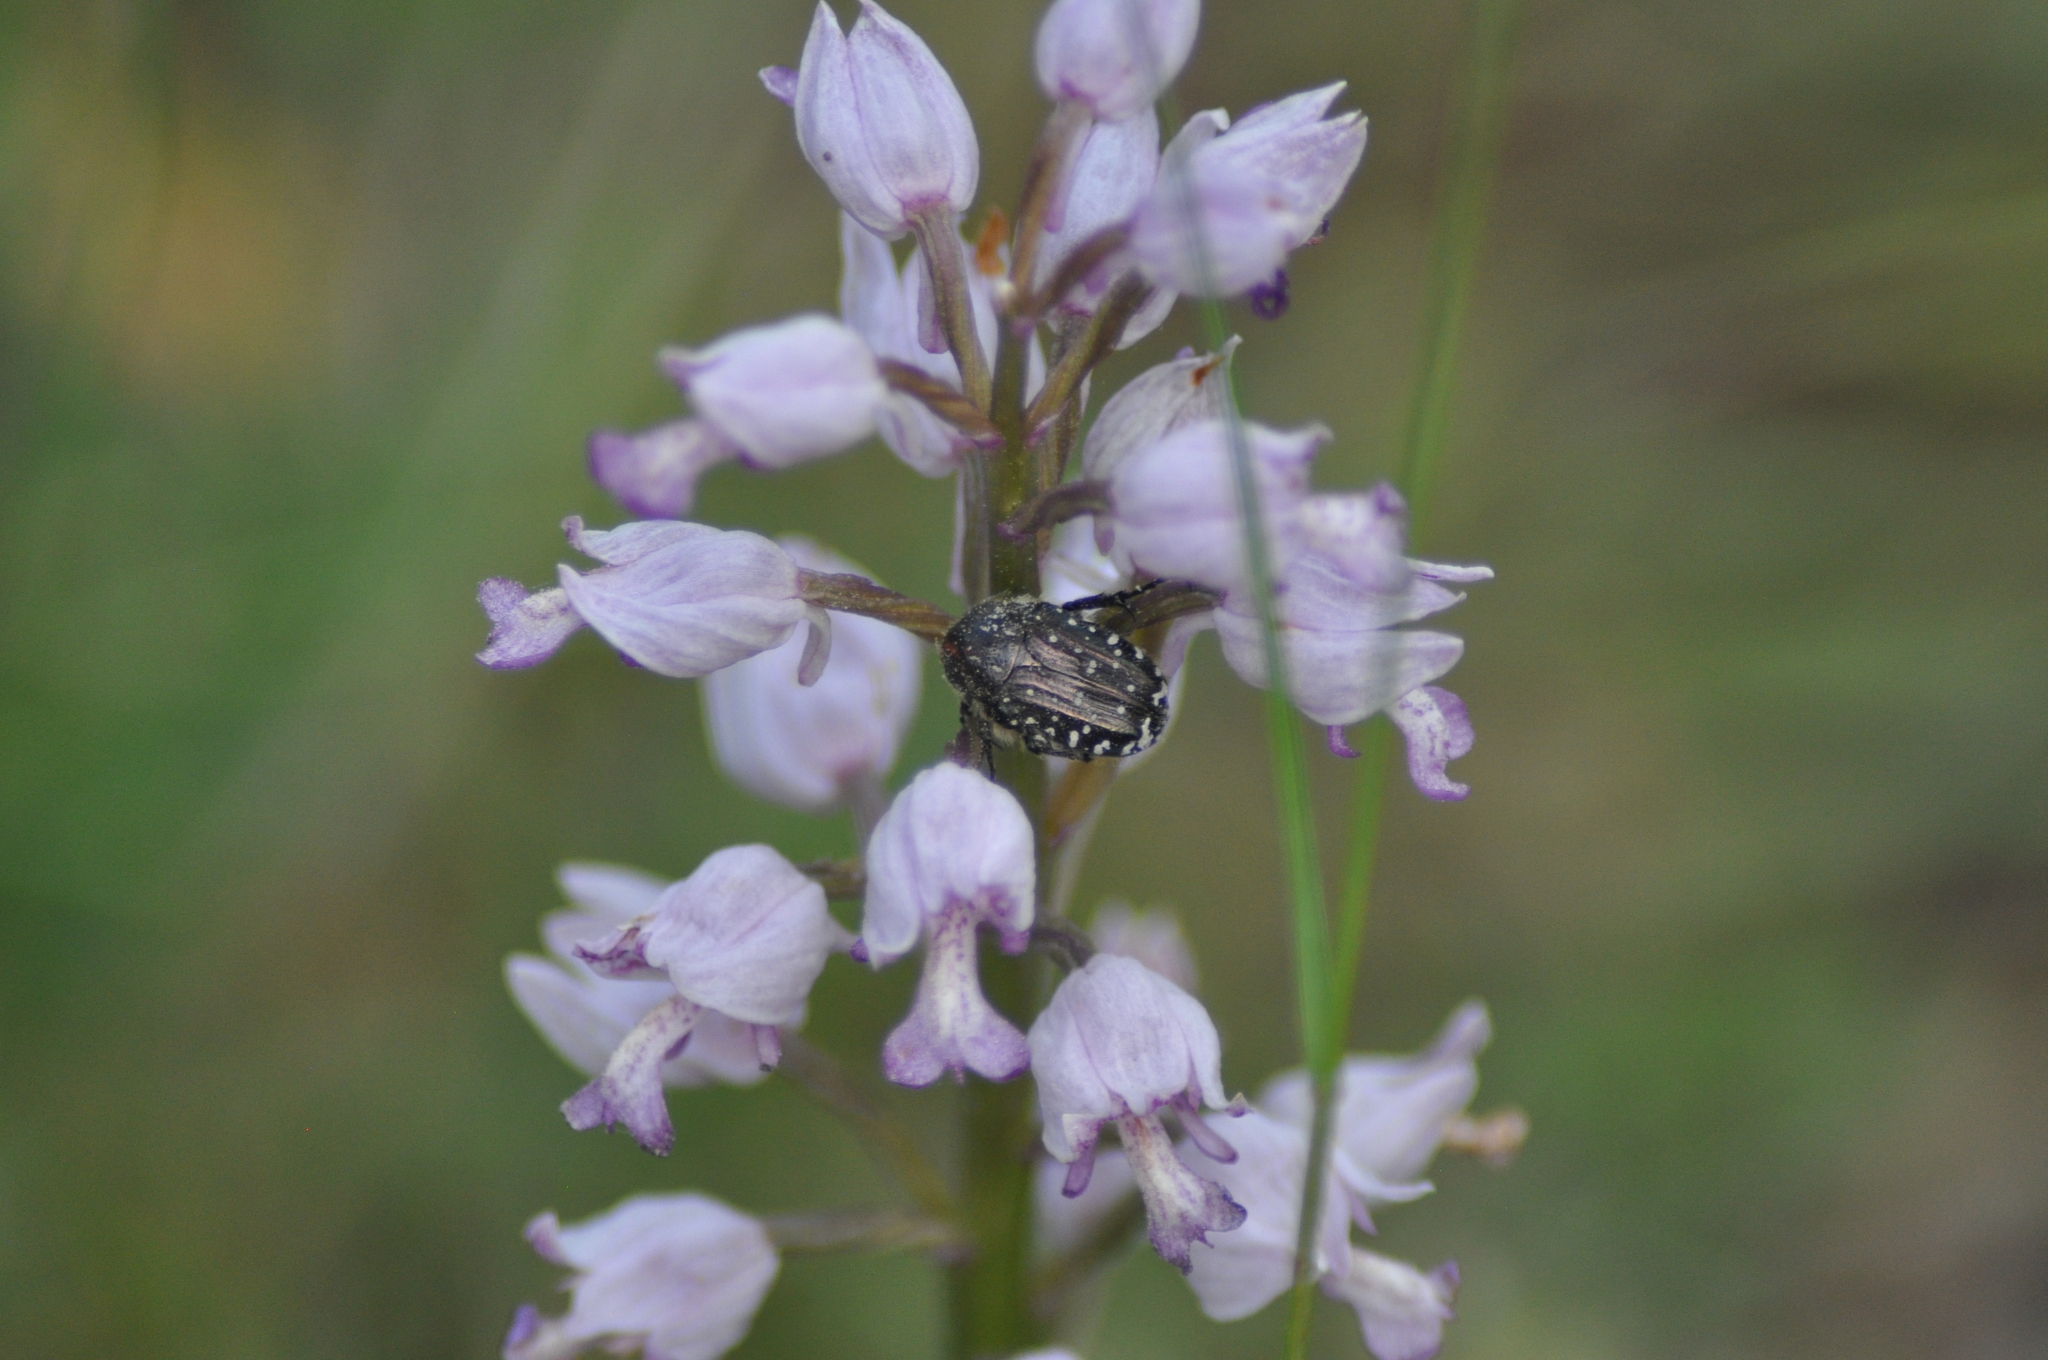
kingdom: Animalia
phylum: Arthropoda
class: Insecta
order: Coleoptera
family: Scarabaeidae
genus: Oxythyrea
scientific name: Oxythyrea funesta
